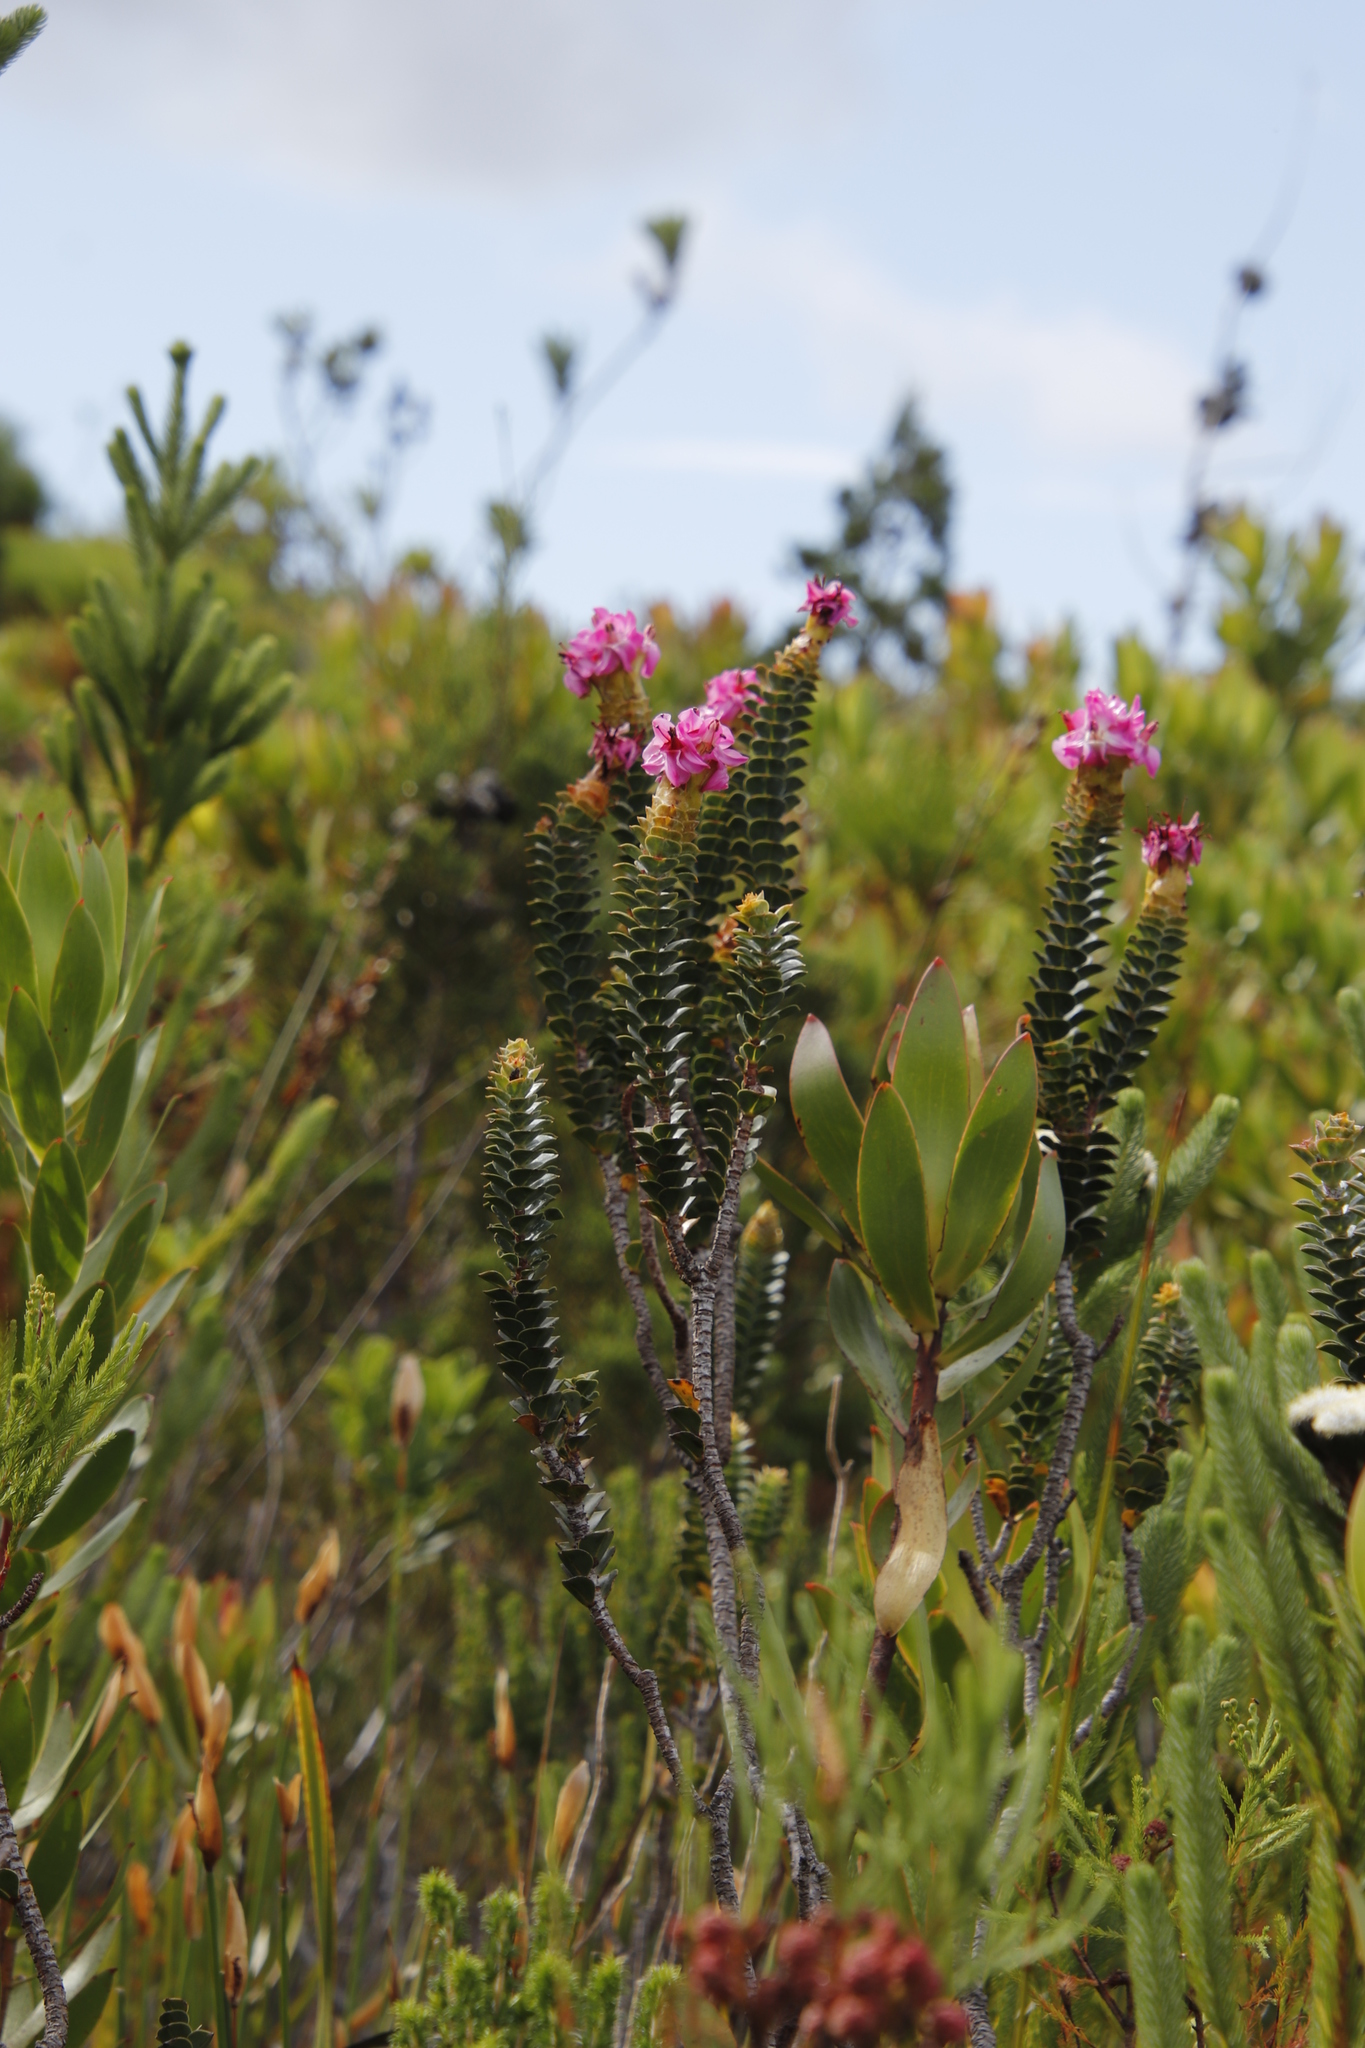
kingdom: Plantae
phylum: Tracheophyta
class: Magnoliopsida
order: Myrtales
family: Penaeaceae
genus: Saltera
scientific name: Saltera sarcocolla
